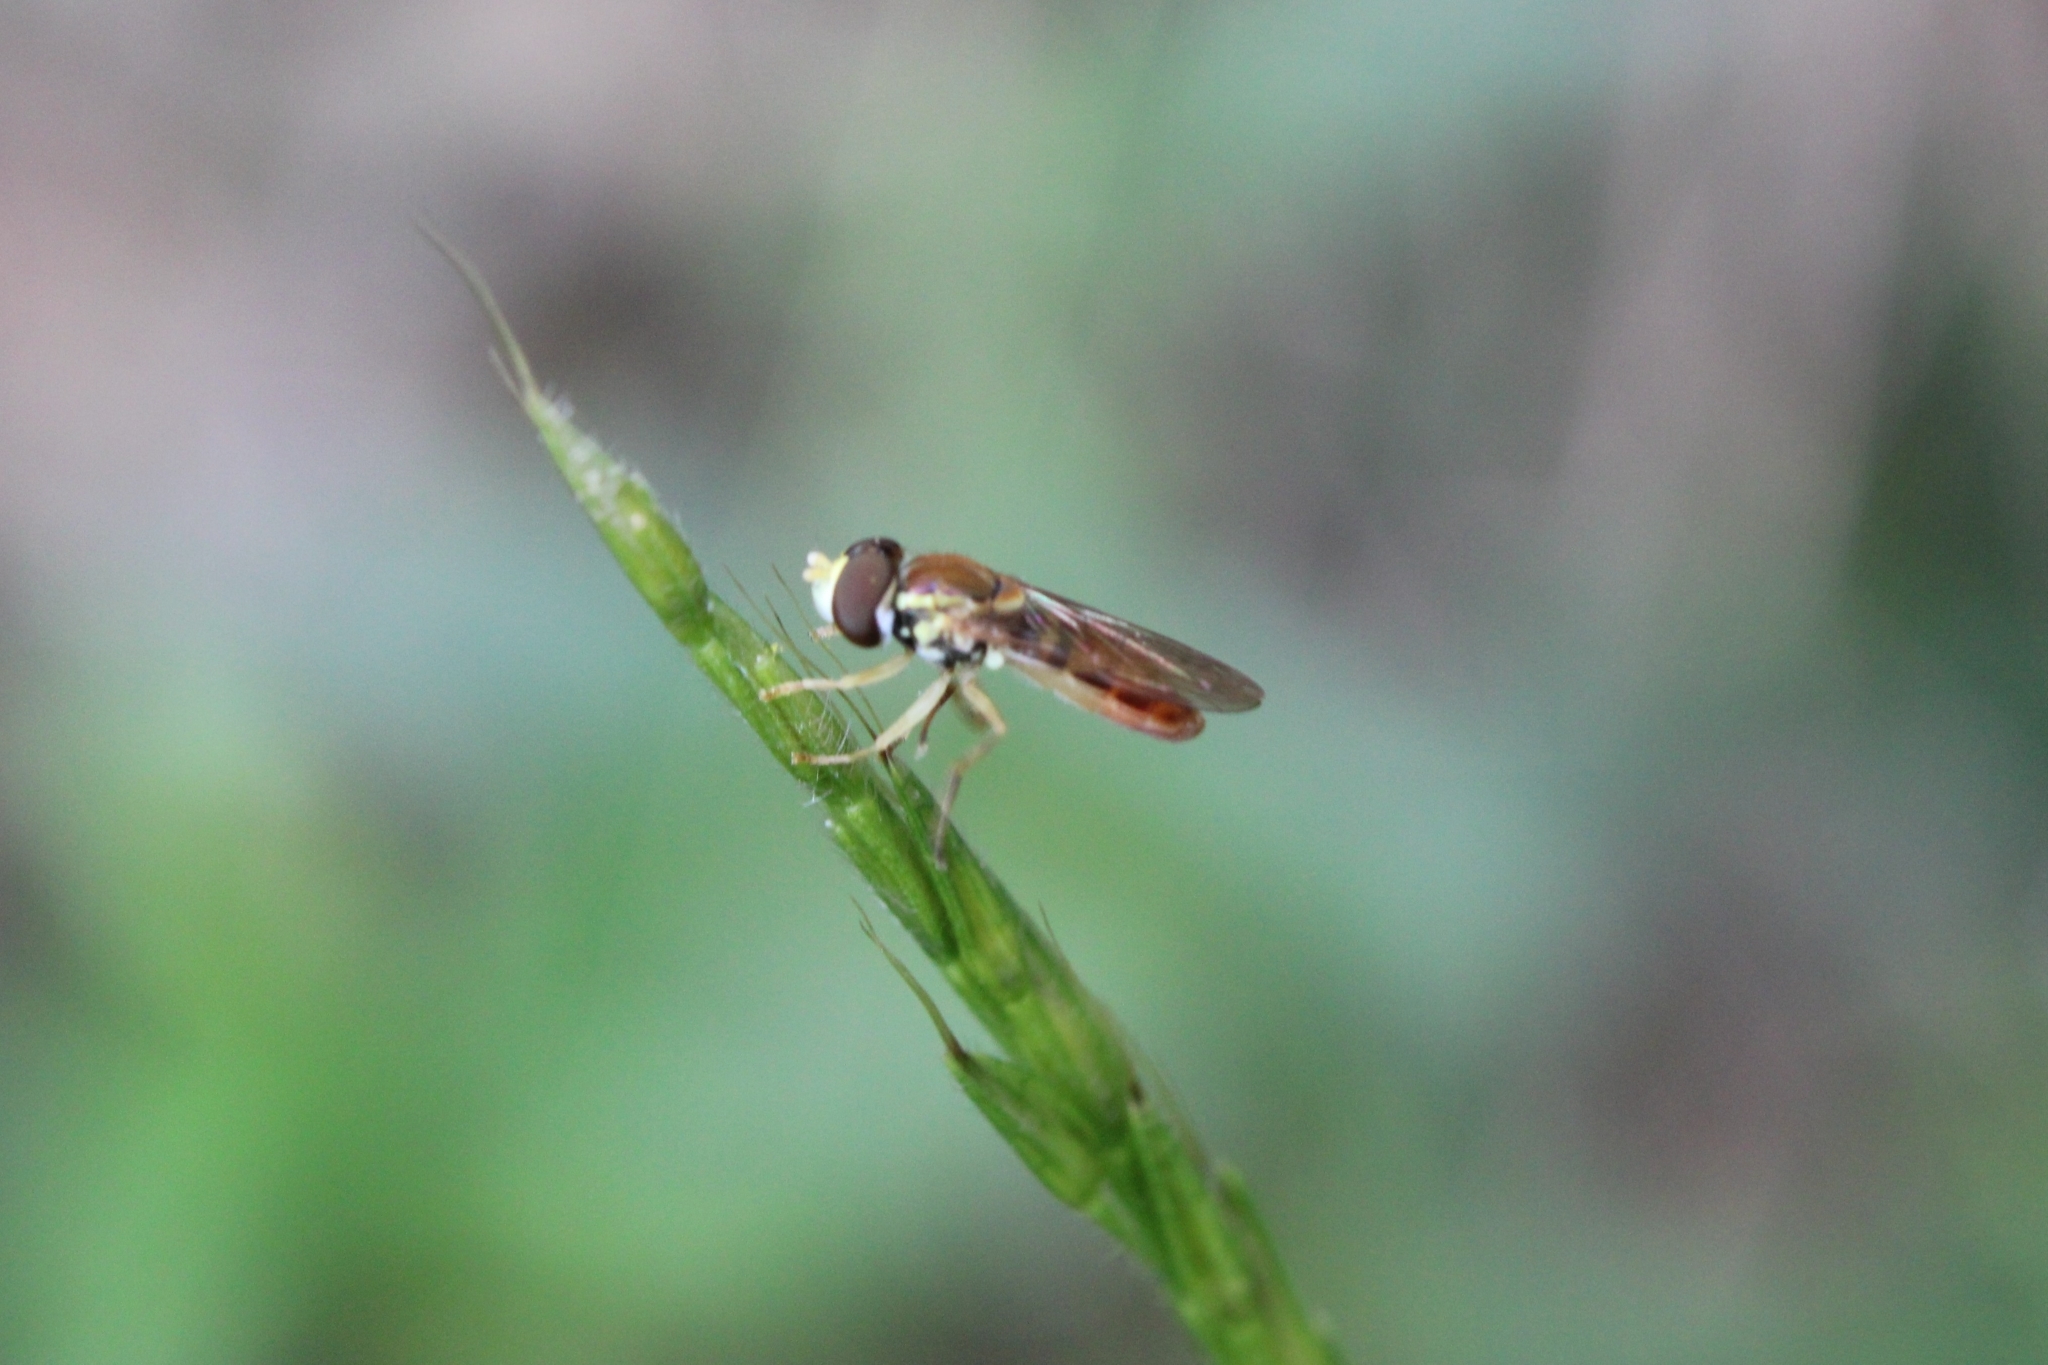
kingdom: Animalia
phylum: Arthropoda
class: Insecta
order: Diptera
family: Syrphidae
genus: Toxomerus
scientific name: Toxomerus marginatus
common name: Syrphid fly
